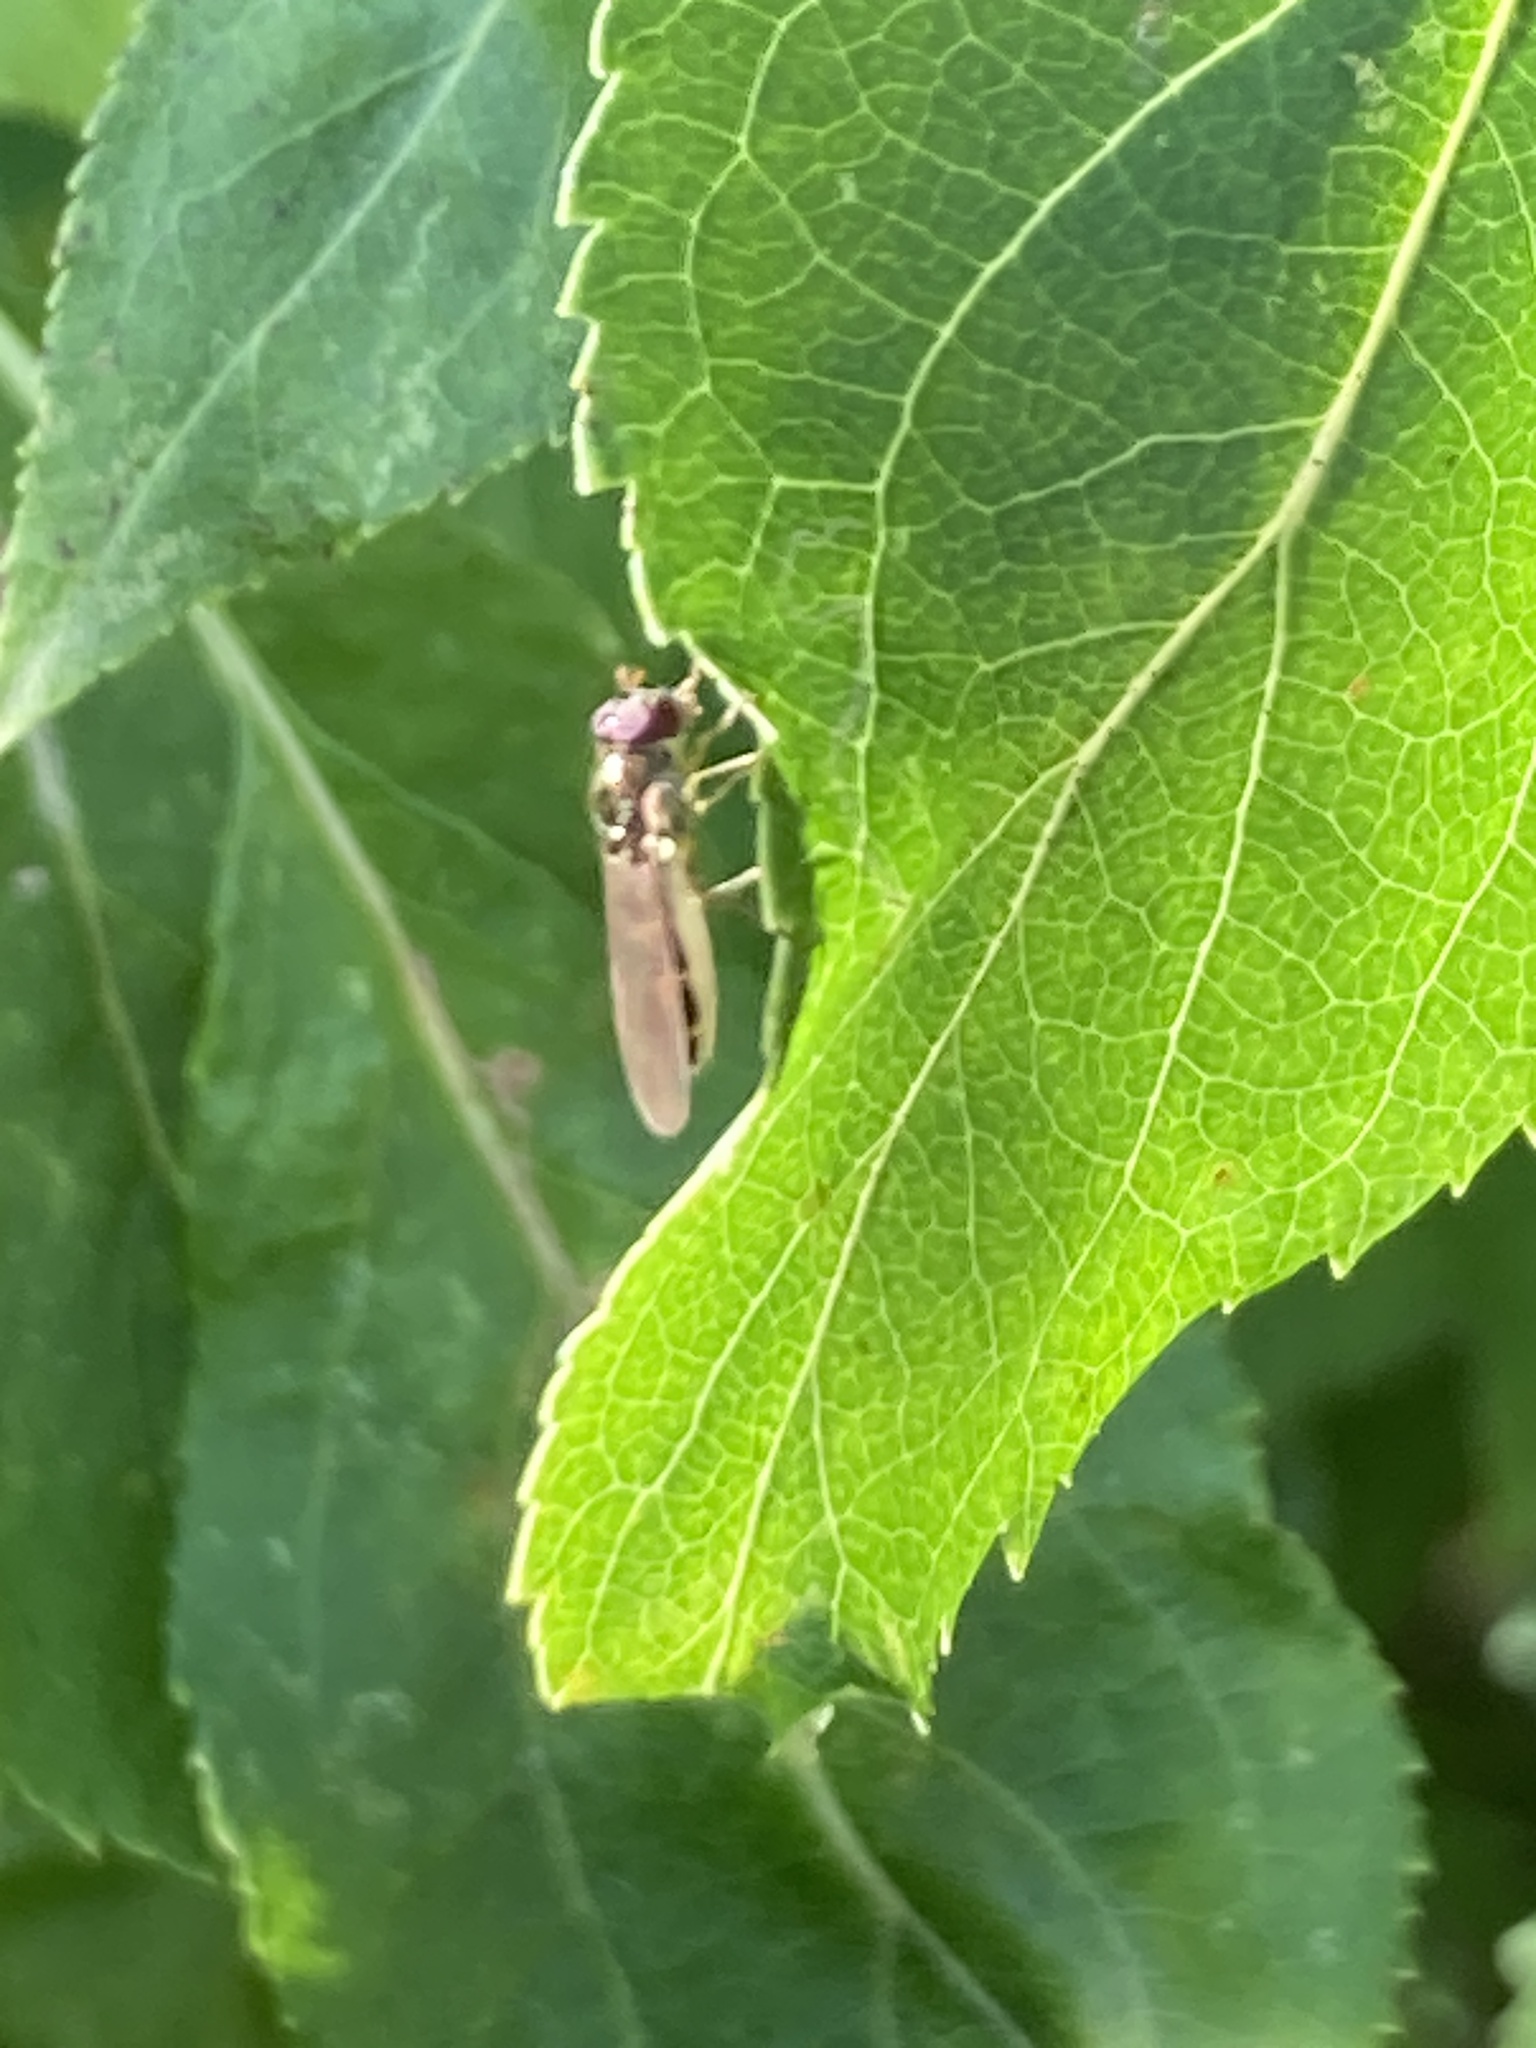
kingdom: Animalia
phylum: Arthropoda
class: Insecta
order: Diptera
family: Syrphidae
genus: Melanostoma
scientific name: Melanostoma scalare
